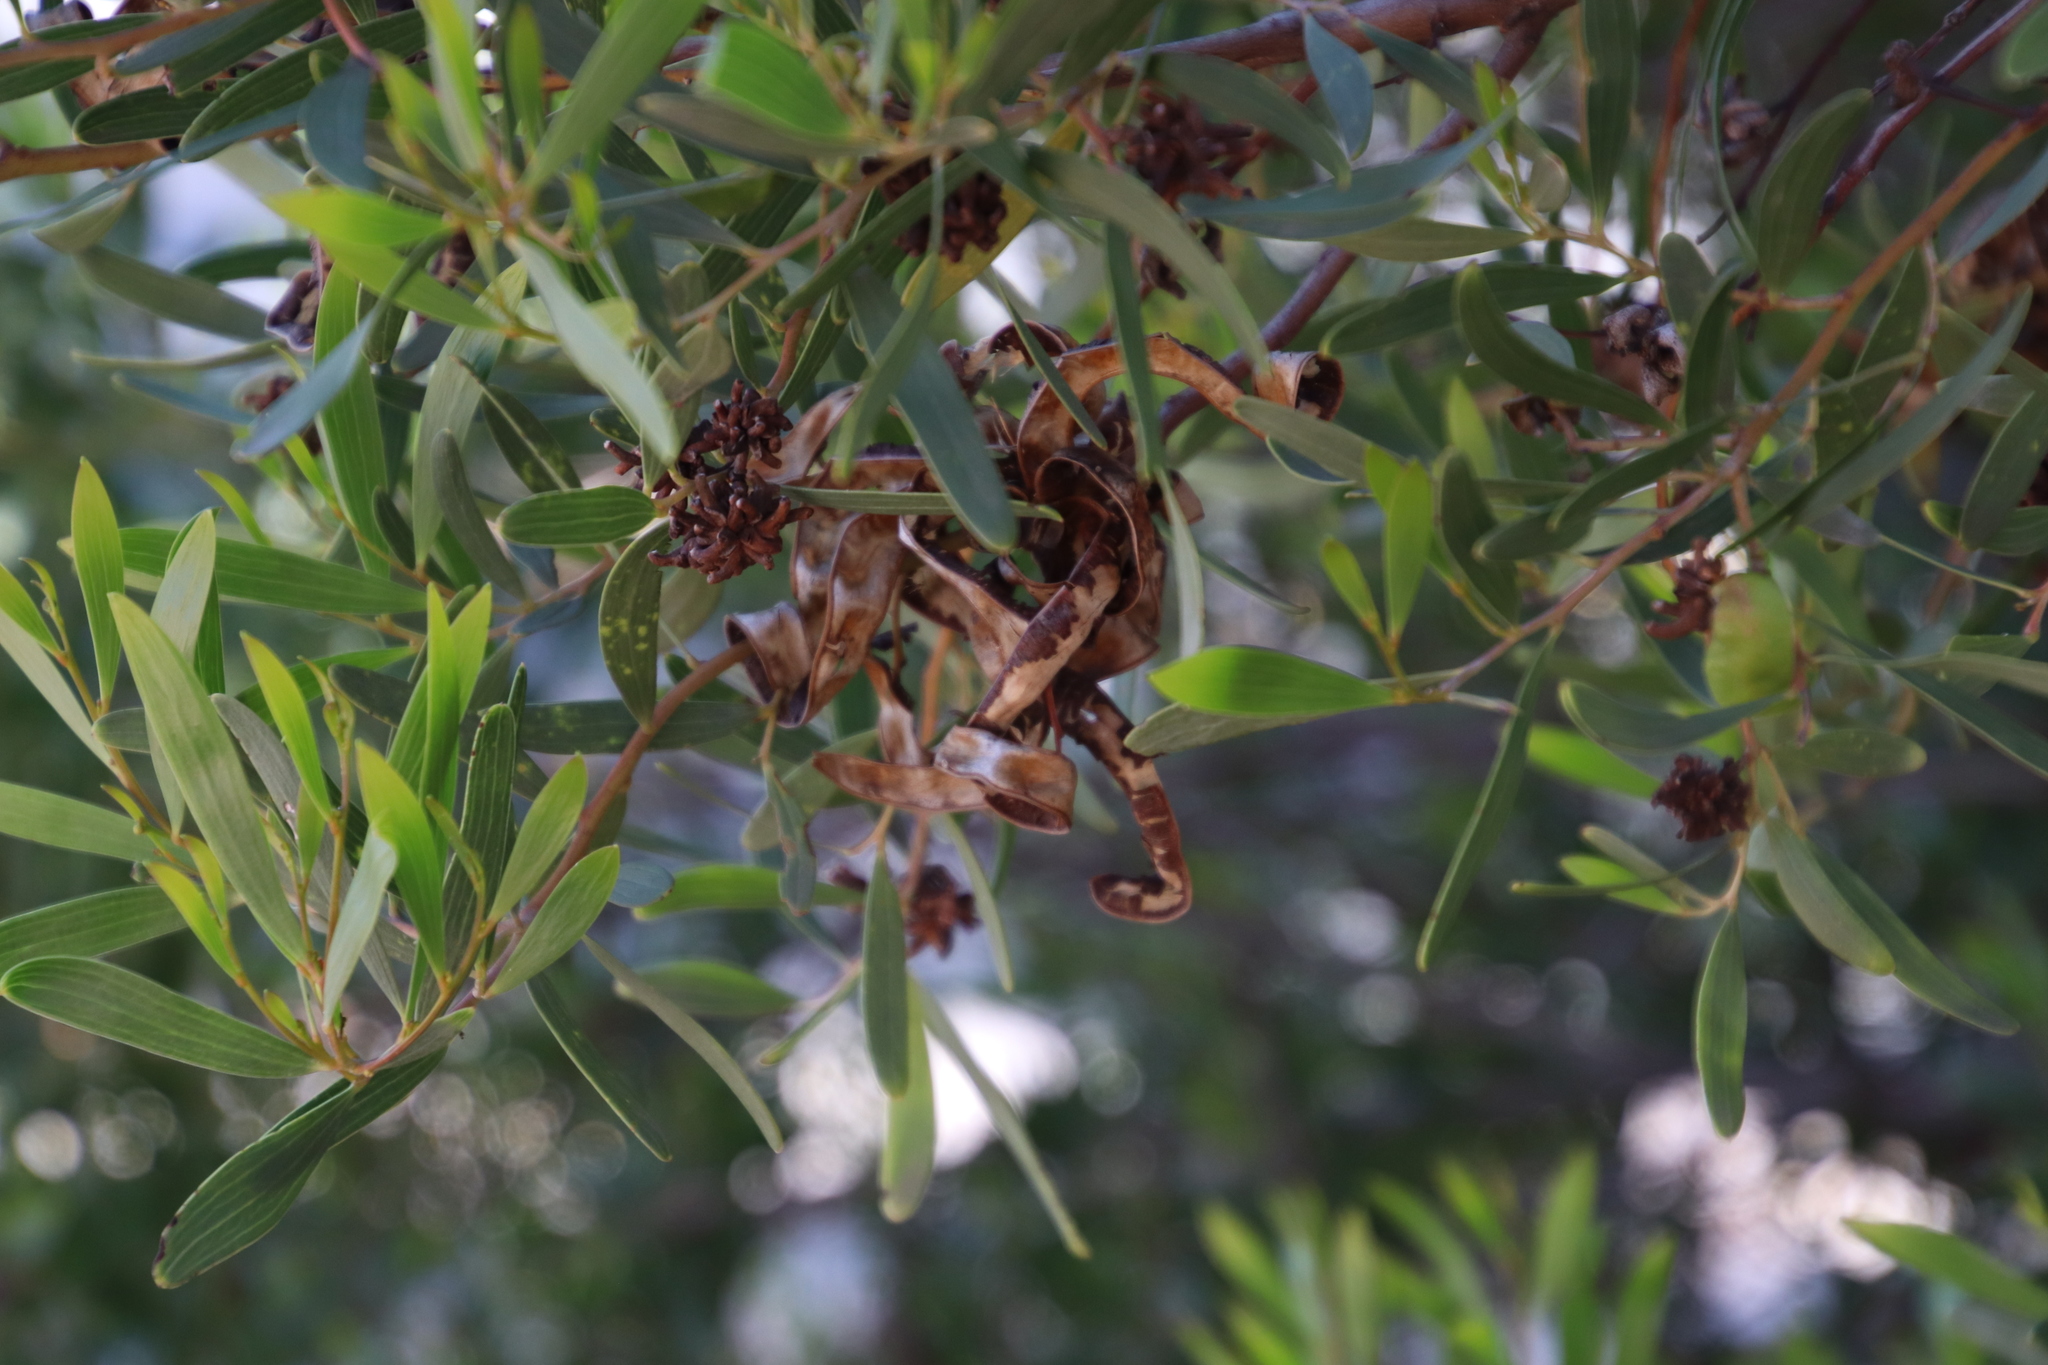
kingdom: Plantae
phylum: Tracheophyta
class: Magnoliopsida
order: Fabales
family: Fabaceae
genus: Acacia
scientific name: Acacia cyclops
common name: Coastal wattle
